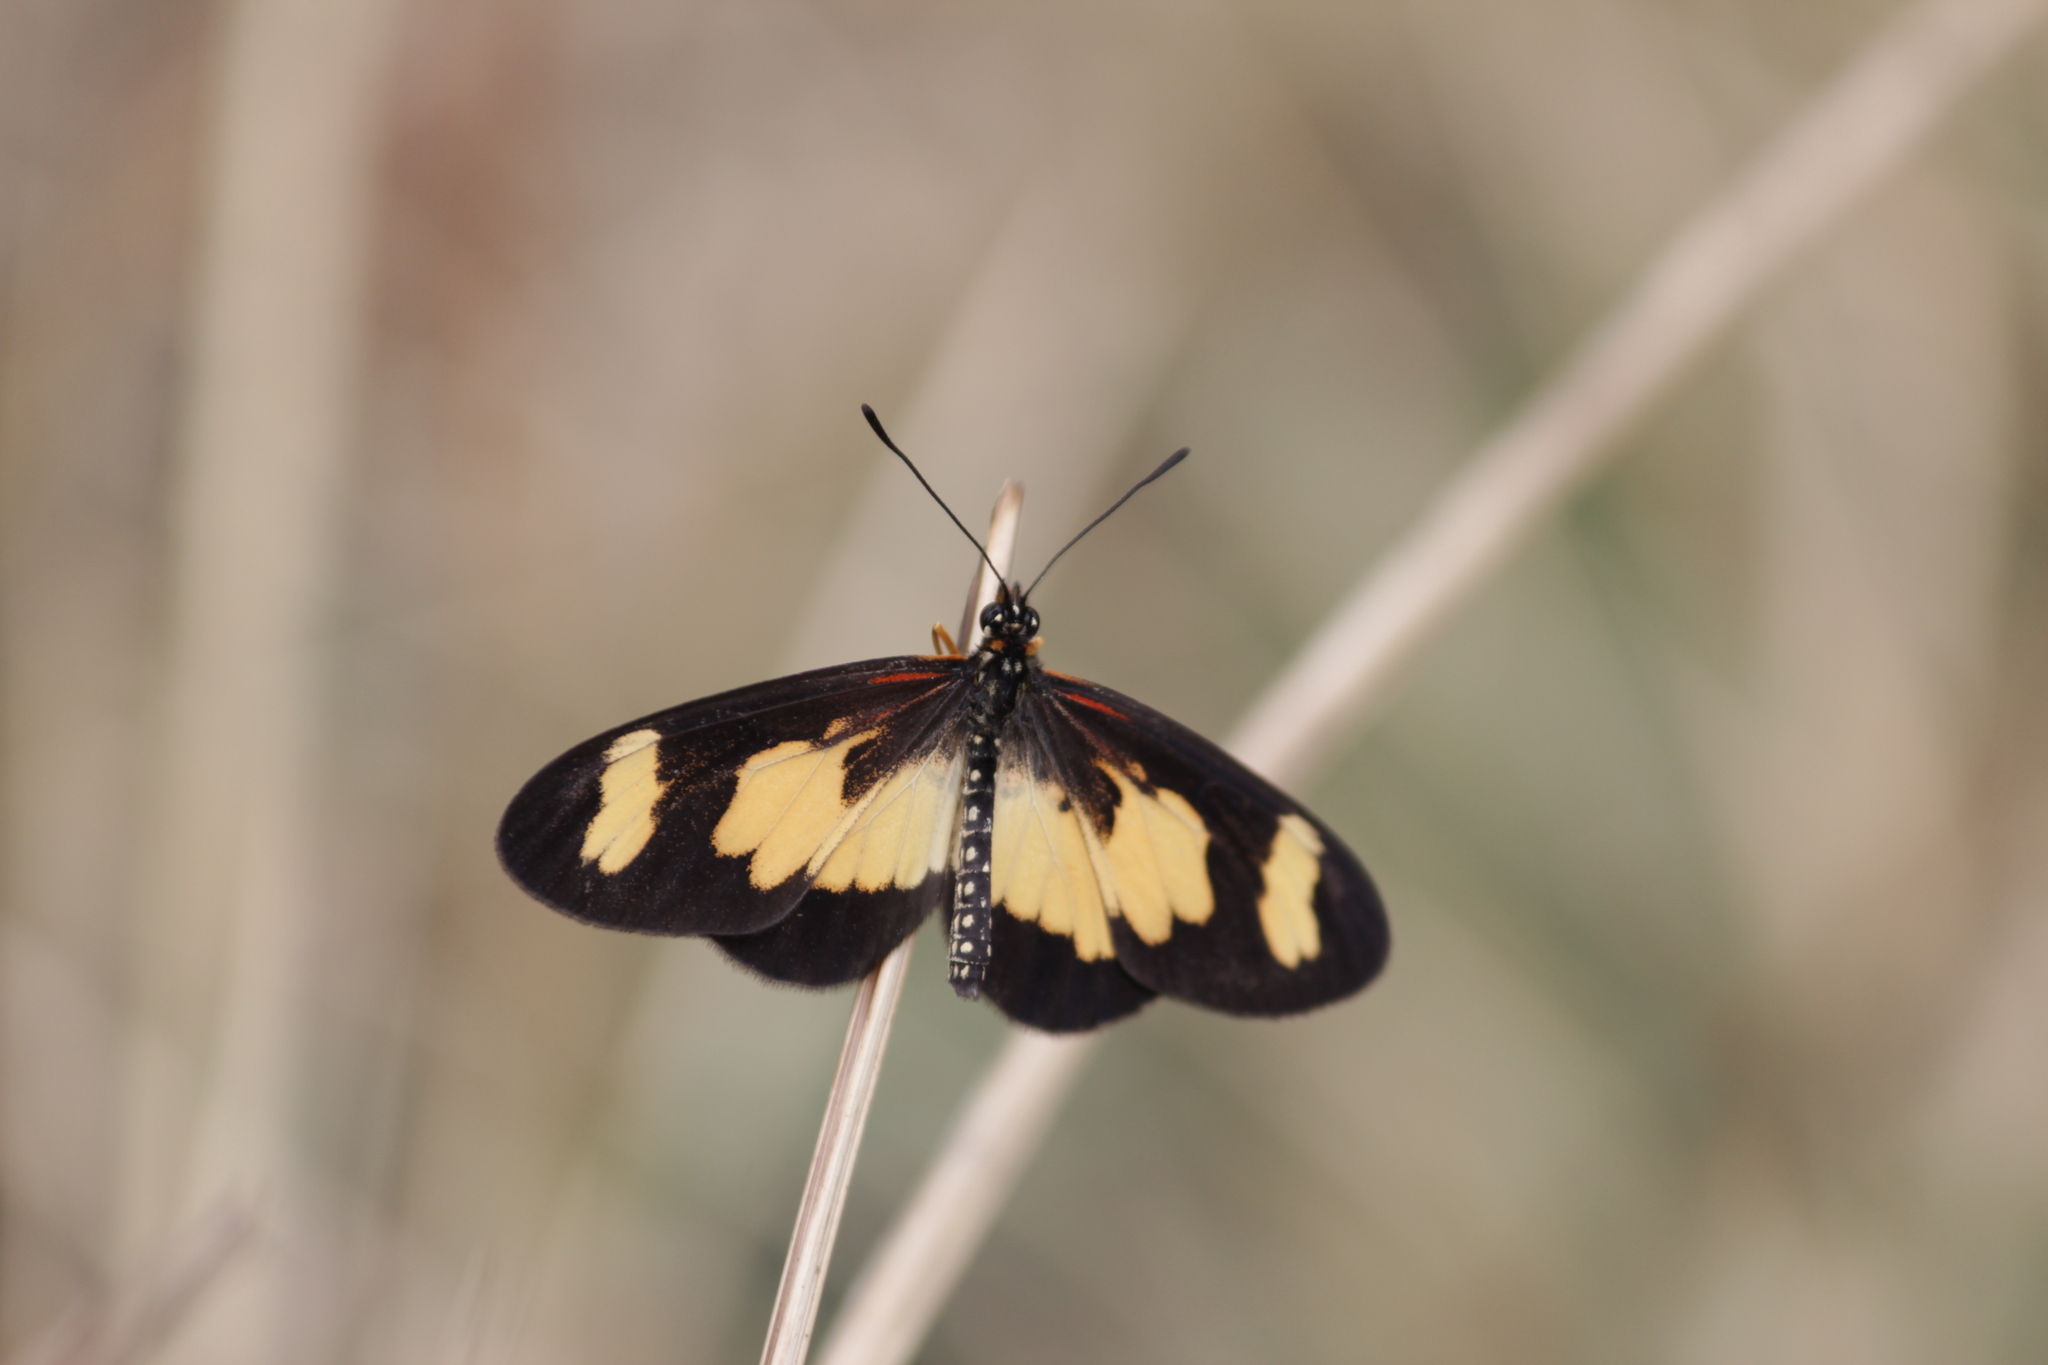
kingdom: Animalia
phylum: Arthropoda
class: Insecta
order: Lepidoptera
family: Nymphalidae
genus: Acraea
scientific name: Acraea cabira
